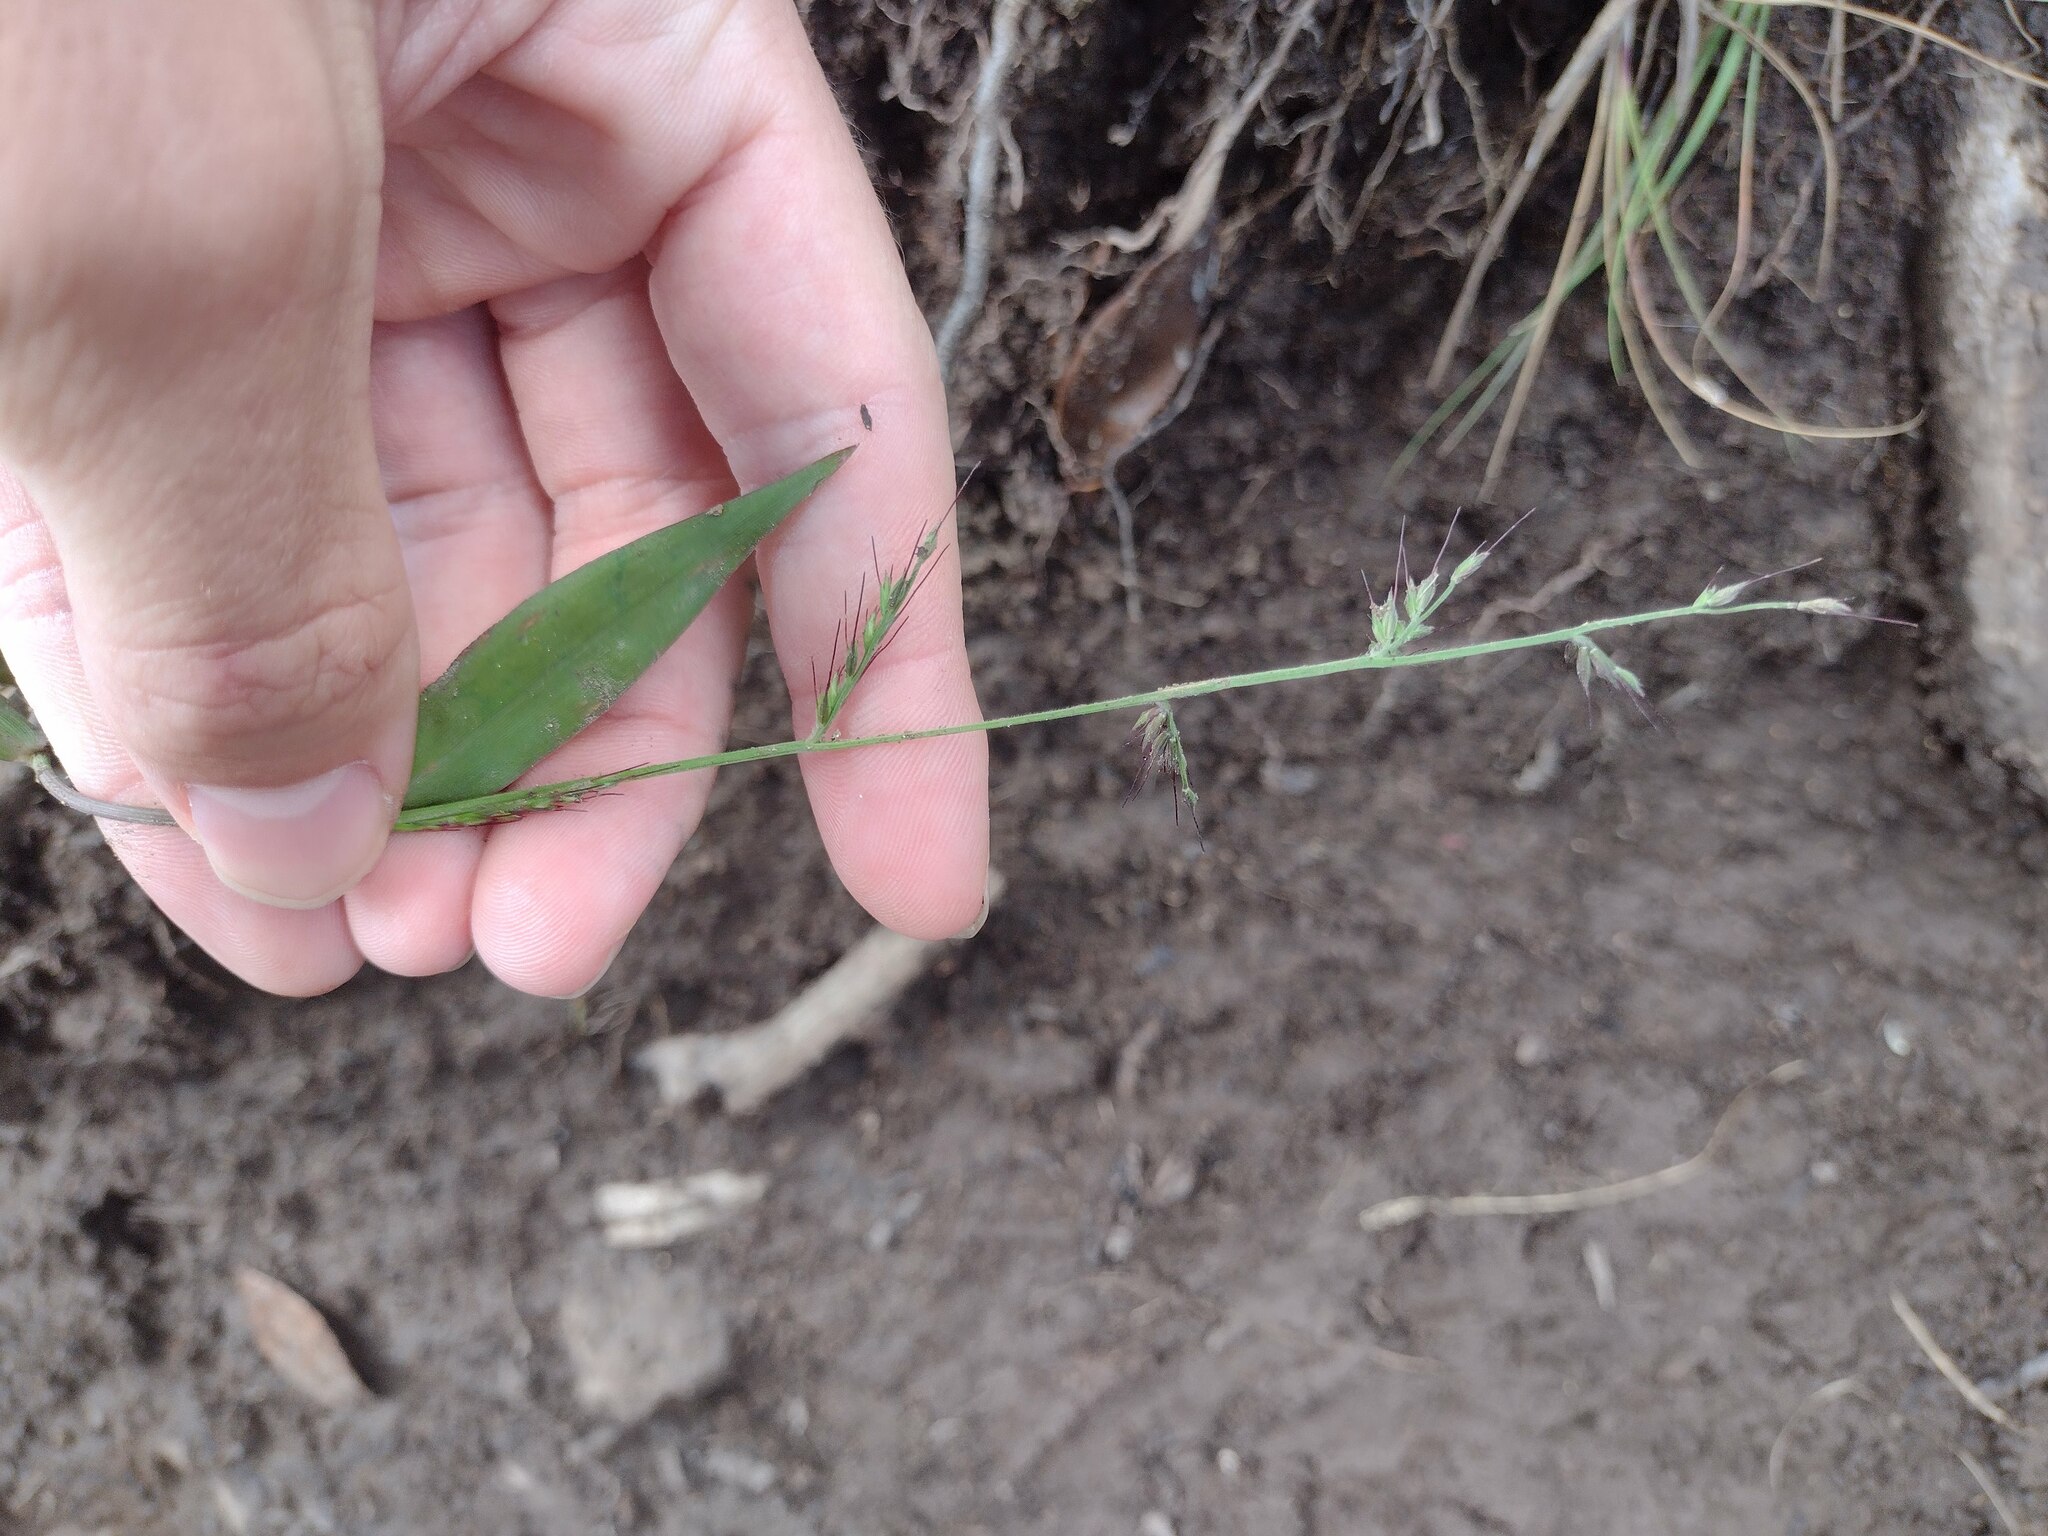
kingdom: Plantae
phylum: Tracheophyta
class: Liliopsida
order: Poales
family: Poaceae
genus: Oplismenus
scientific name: Oplismenus hirtellus
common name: Basketgrass
